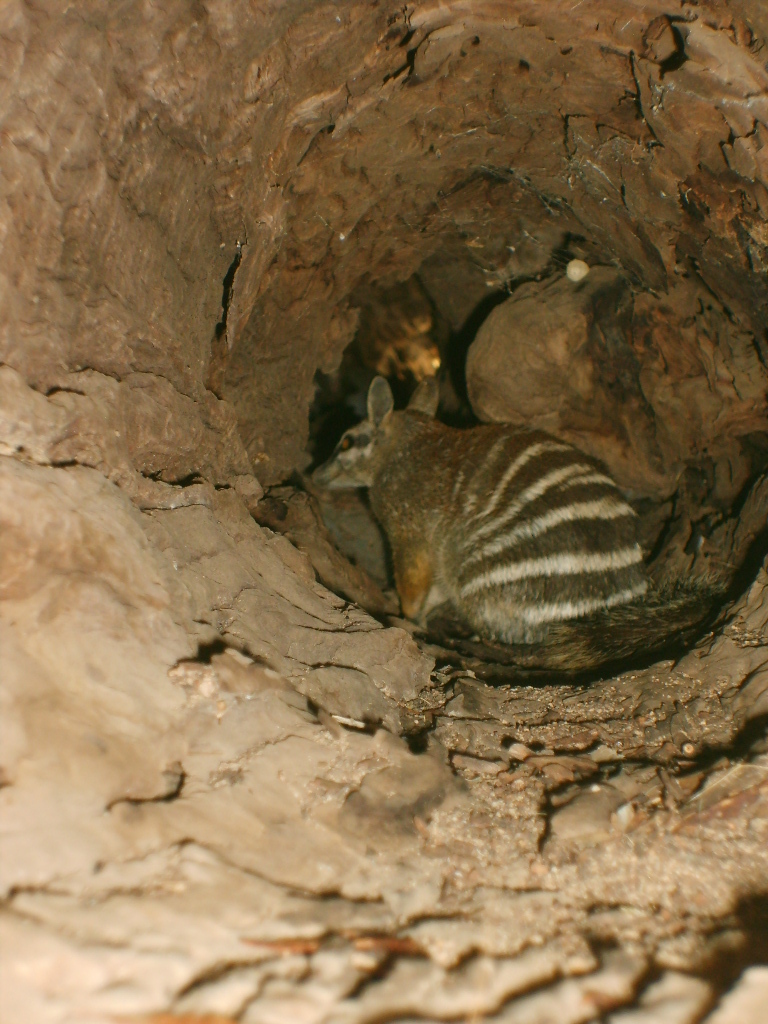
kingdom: Animalia
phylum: Chordata
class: Mammalia
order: Dasyuromorphia
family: Myrmecobiidae
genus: Myrmecobius
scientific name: Myrmecobius fasciatus
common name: Numbat
